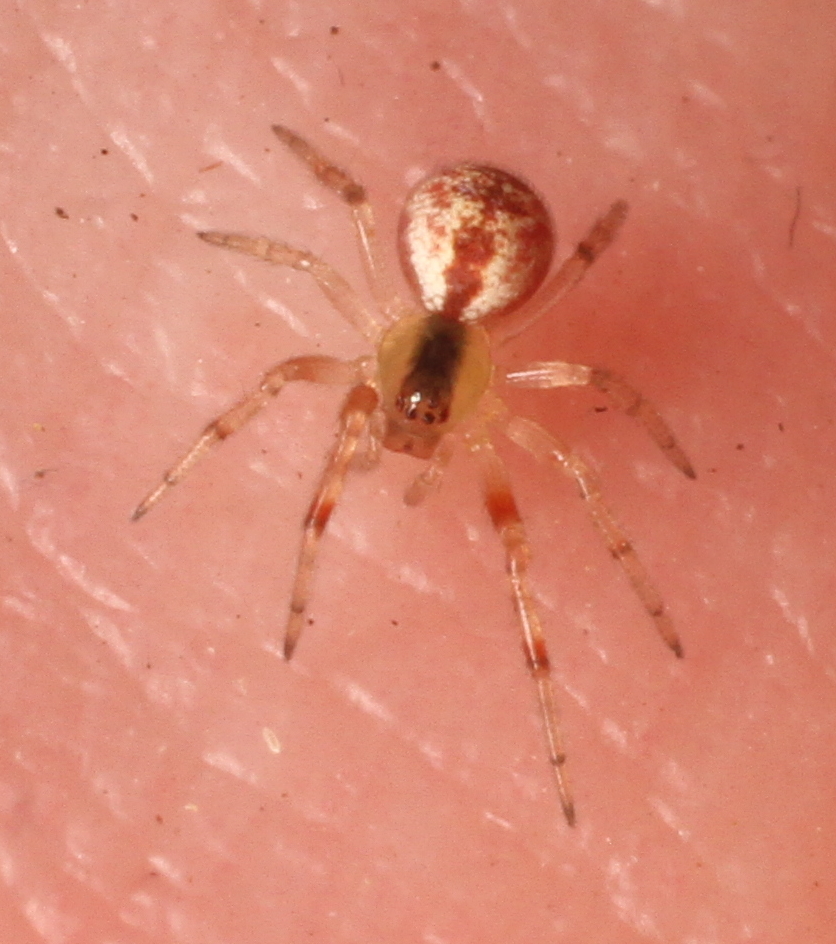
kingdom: Animalia
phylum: Arthropoda
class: Arachnida
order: Araneae
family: Theridiidae
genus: Anelosimus
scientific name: Anelosimus vittatus
